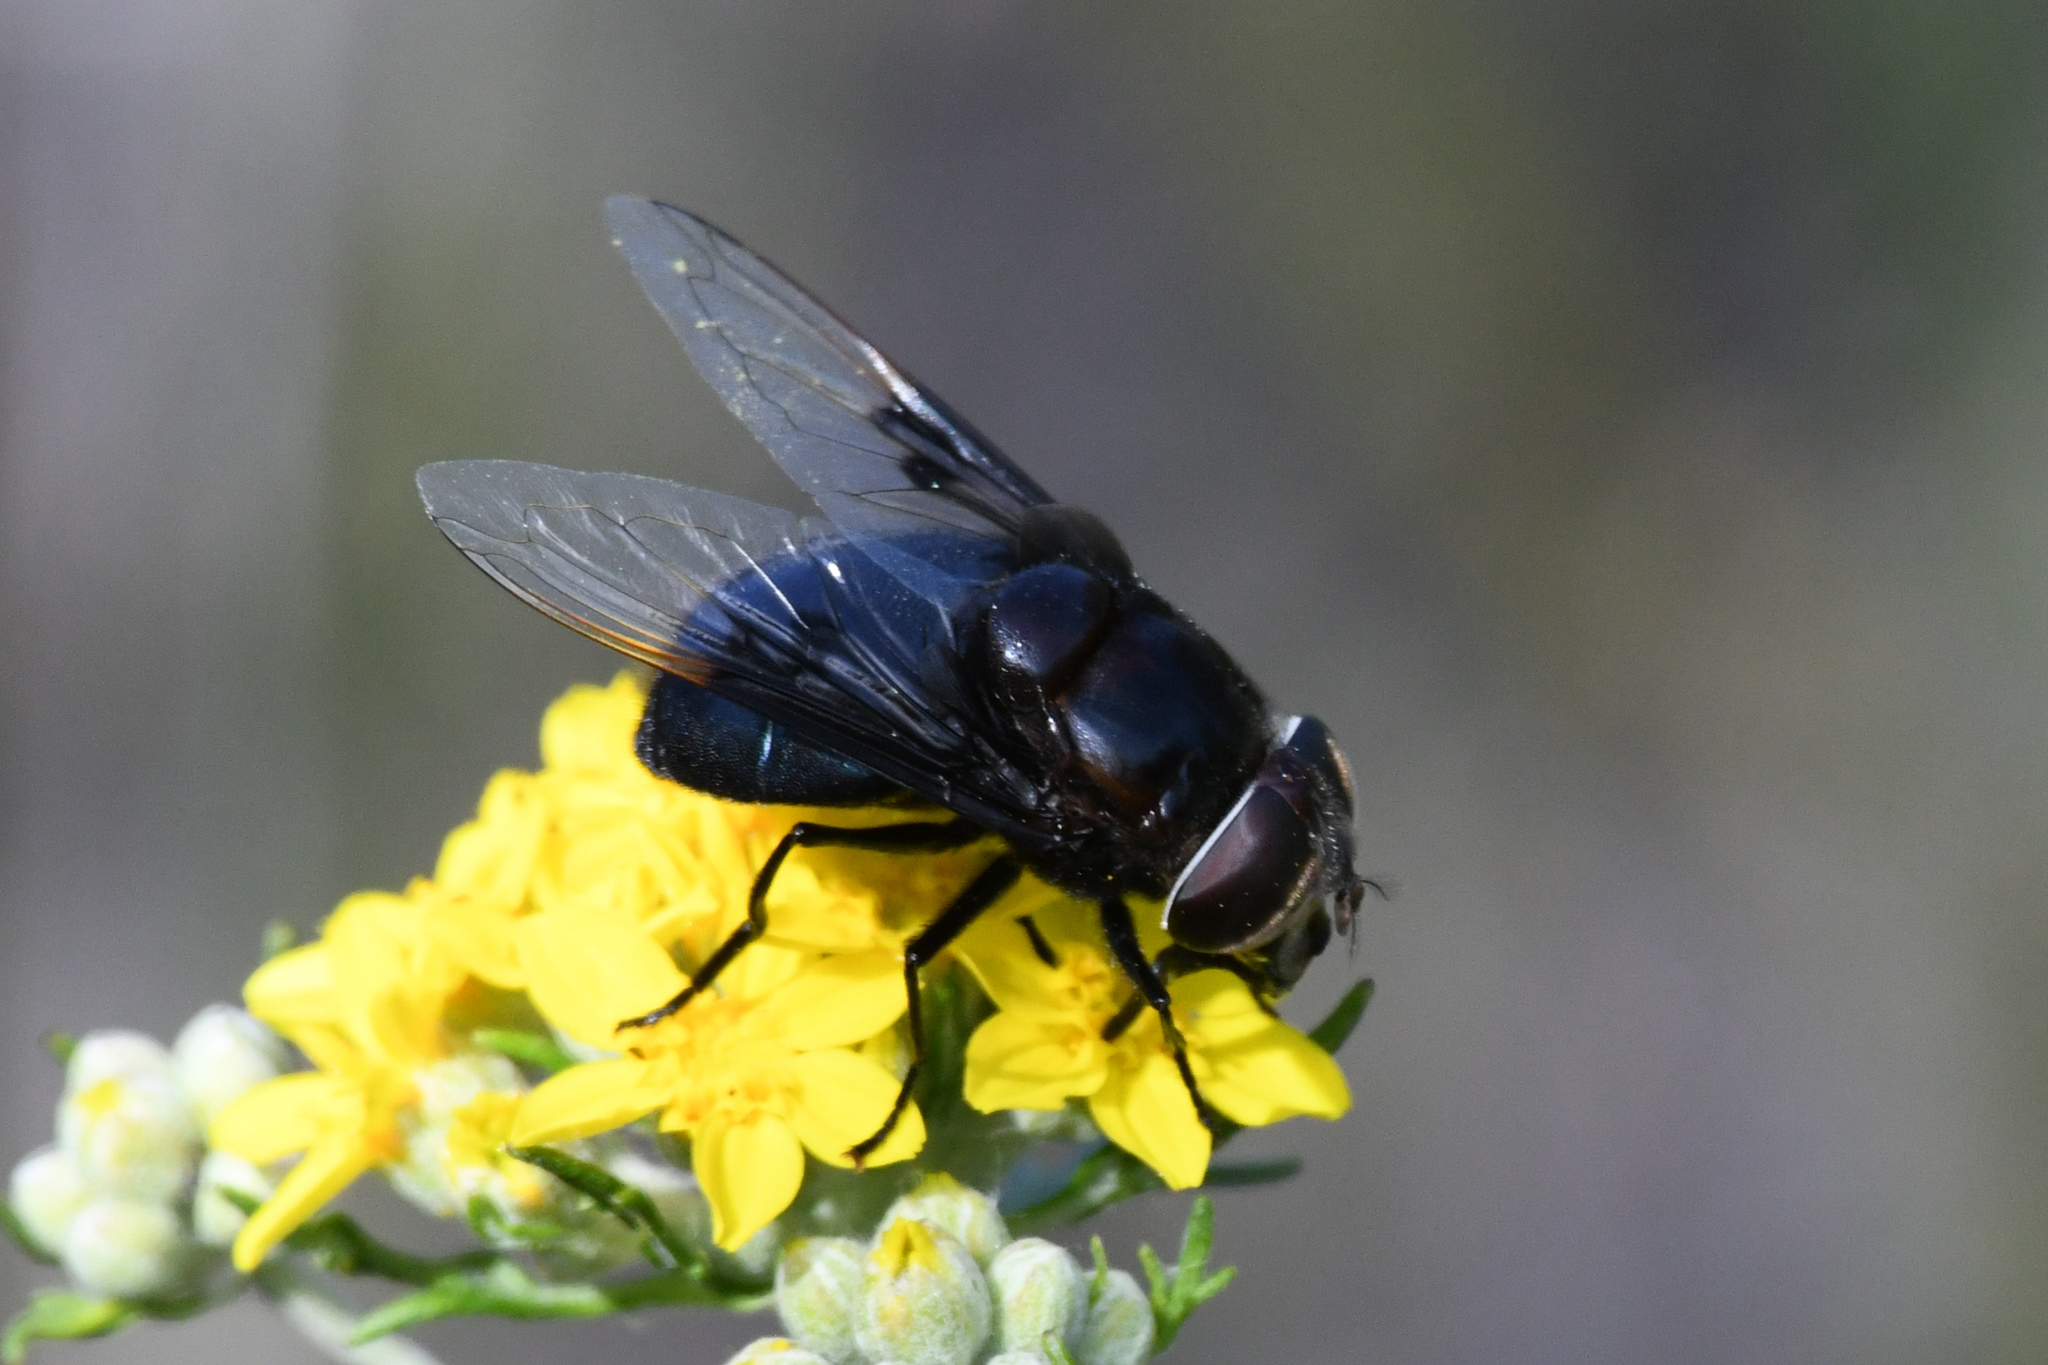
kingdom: Animalia
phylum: Arthropoda
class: Insecta
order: Diptera
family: Syrphidae
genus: Copestylum
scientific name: Copestylum mexicanum
